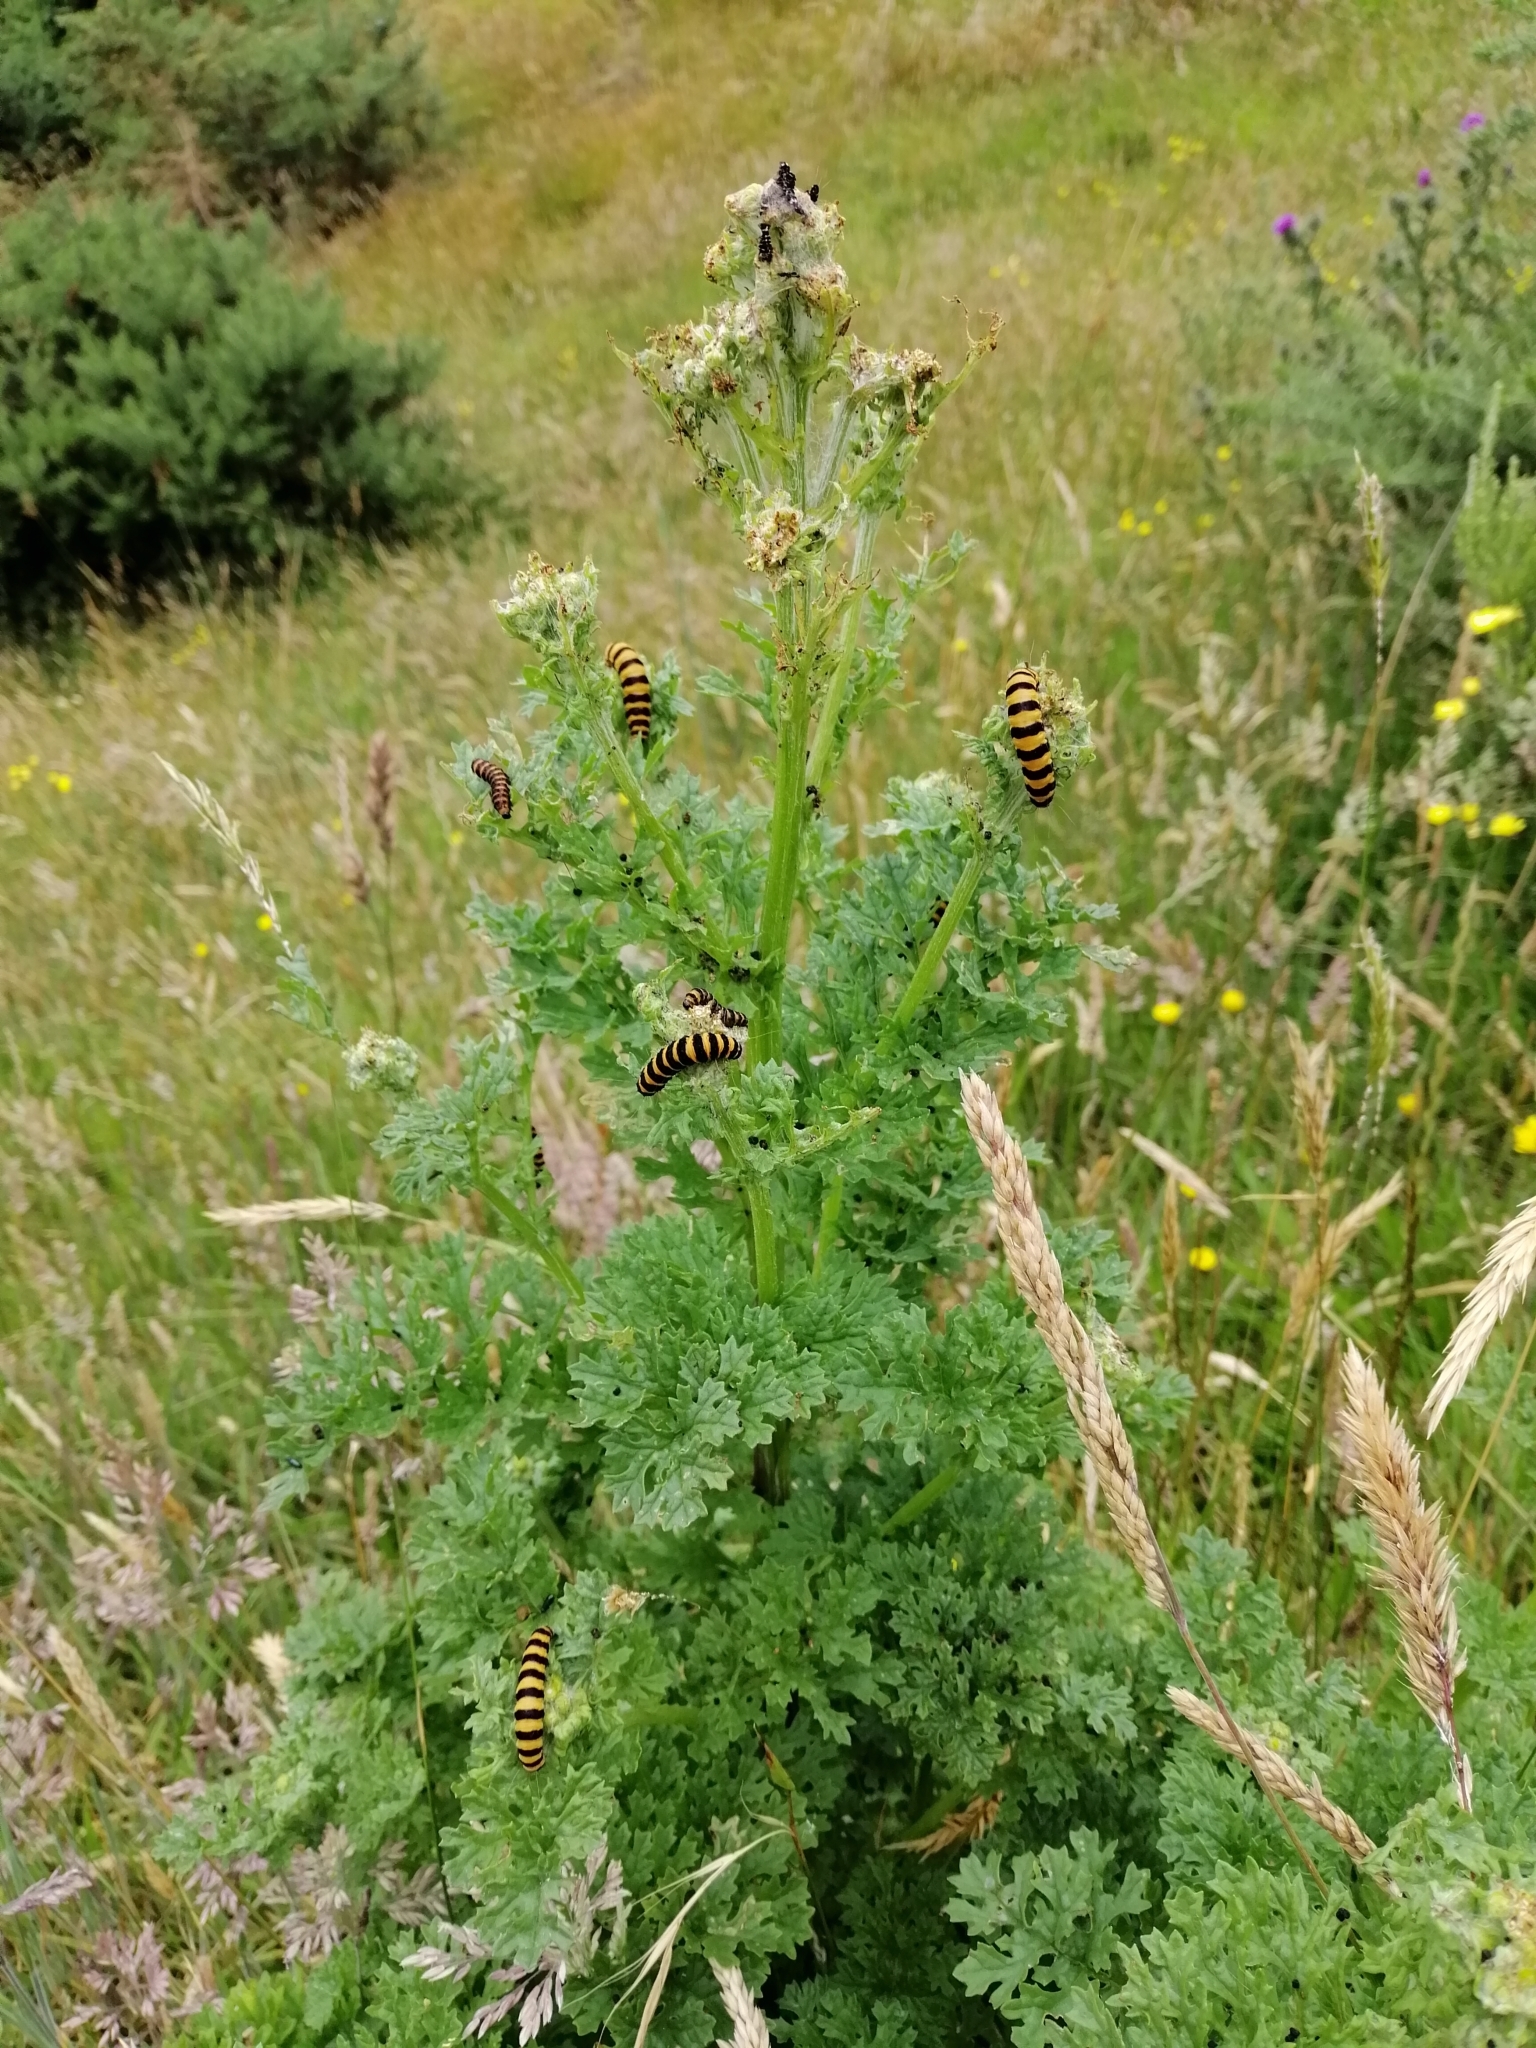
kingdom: Animalia
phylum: Arthropoda
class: Insecta
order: Lepidoptera
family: Erebidae
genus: Tyria
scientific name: Tyria jacobaeae
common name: Cinnabar
